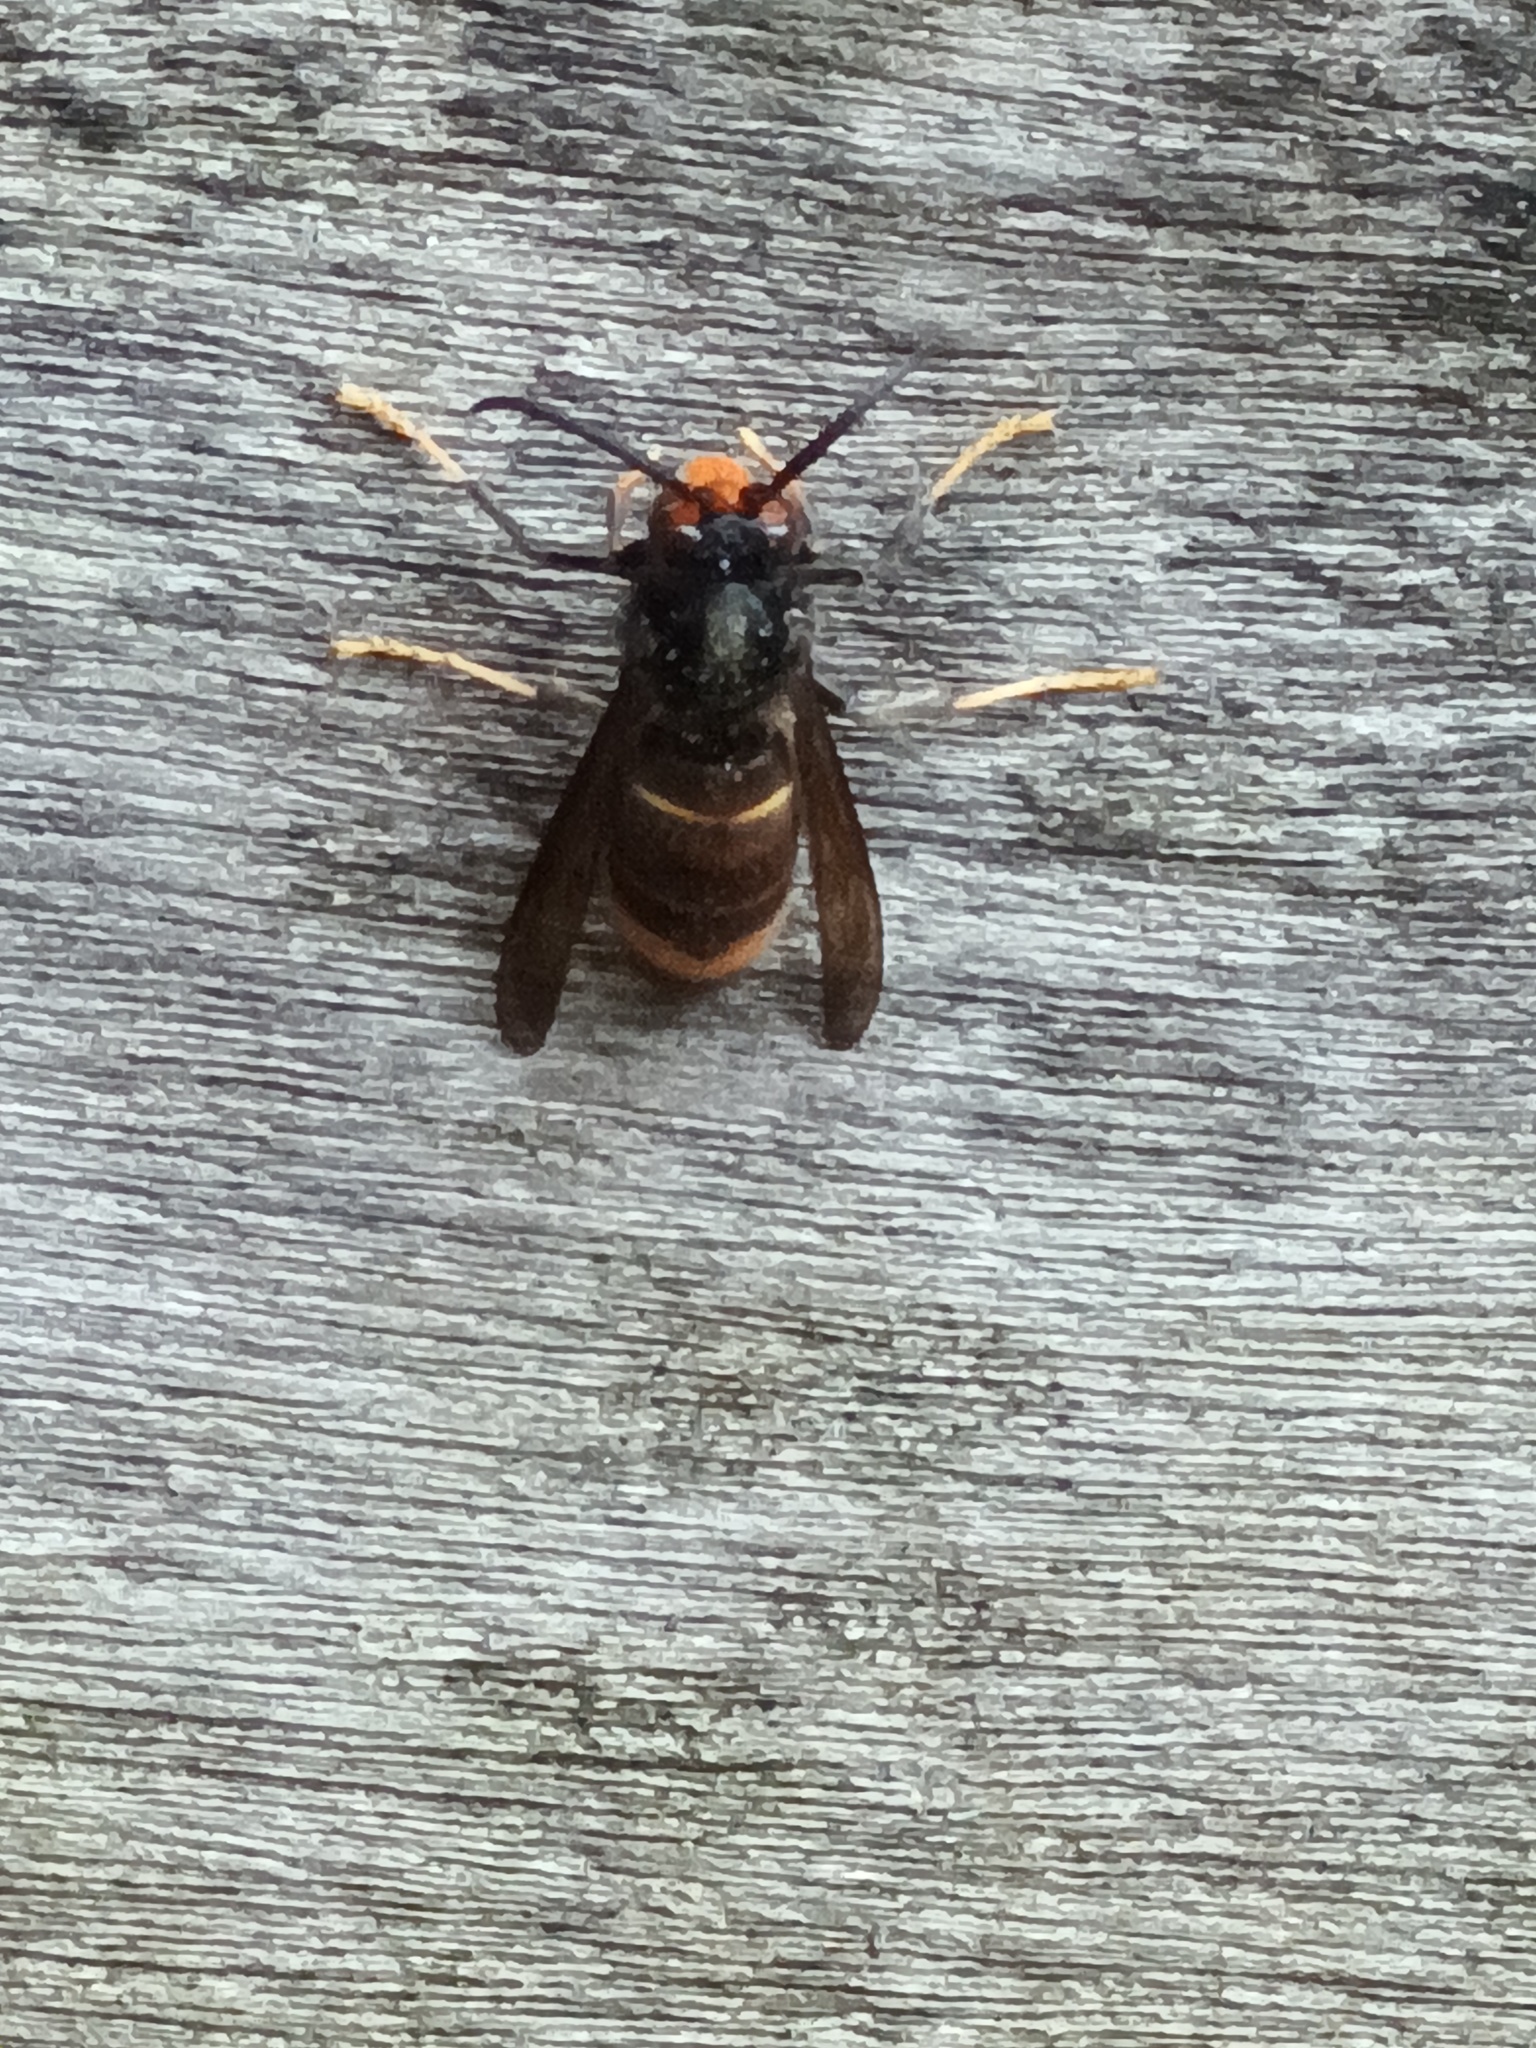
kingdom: Animalia
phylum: Arthropoda
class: Insecta
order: Hymenoptera
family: Vespidae
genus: Vespa
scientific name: Vespa velutina
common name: Asian hornet
